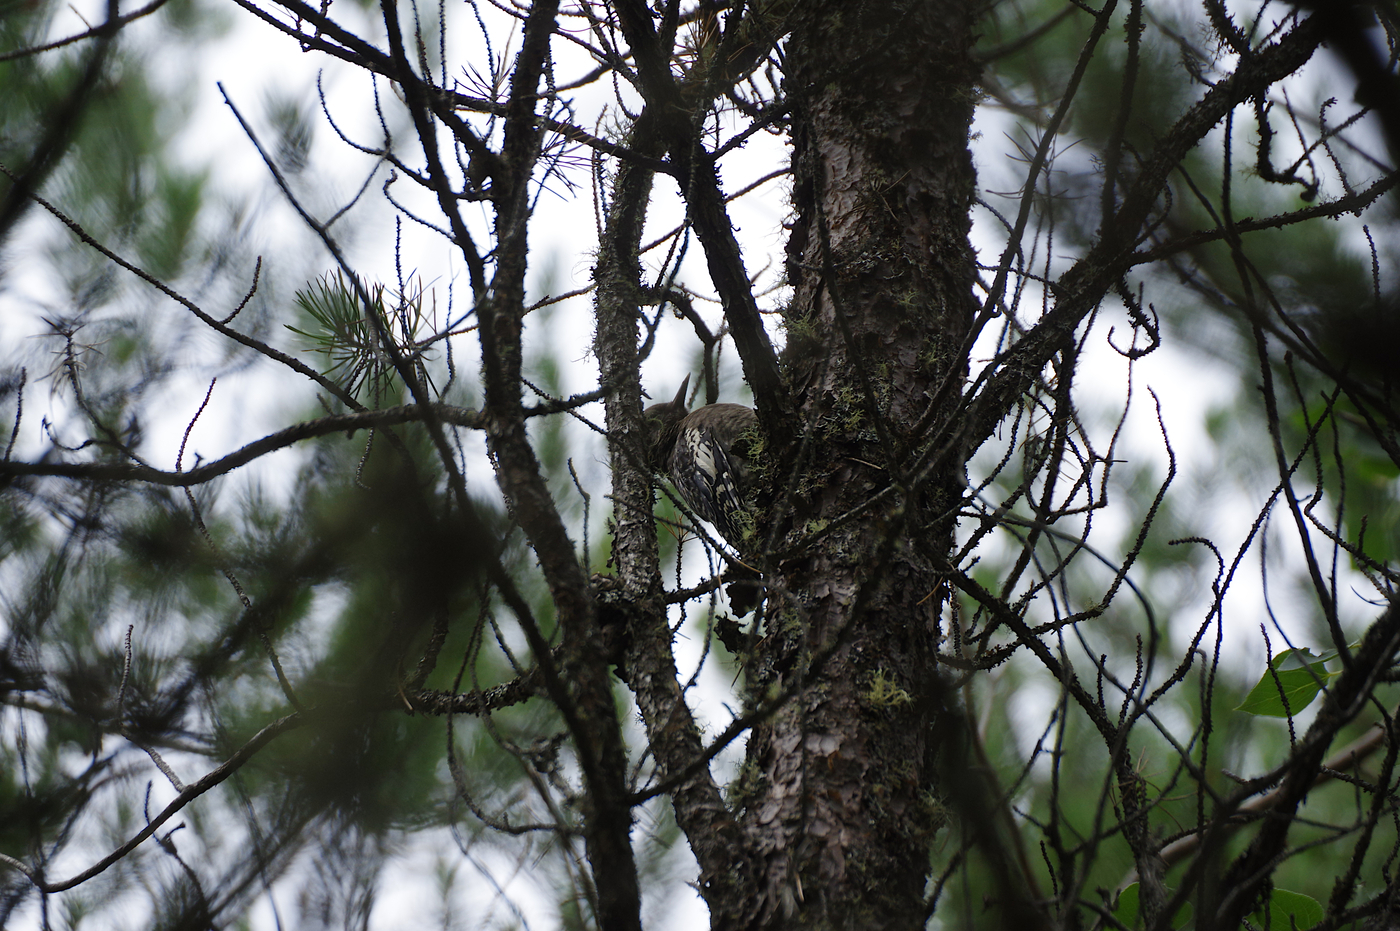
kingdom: Animalia
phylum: Chordata
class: Aves
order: Piciformes
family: Picidae
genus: Sphyrapicus
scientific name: Sphyrapicus varius
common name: Yellow-bellied sapsucker
